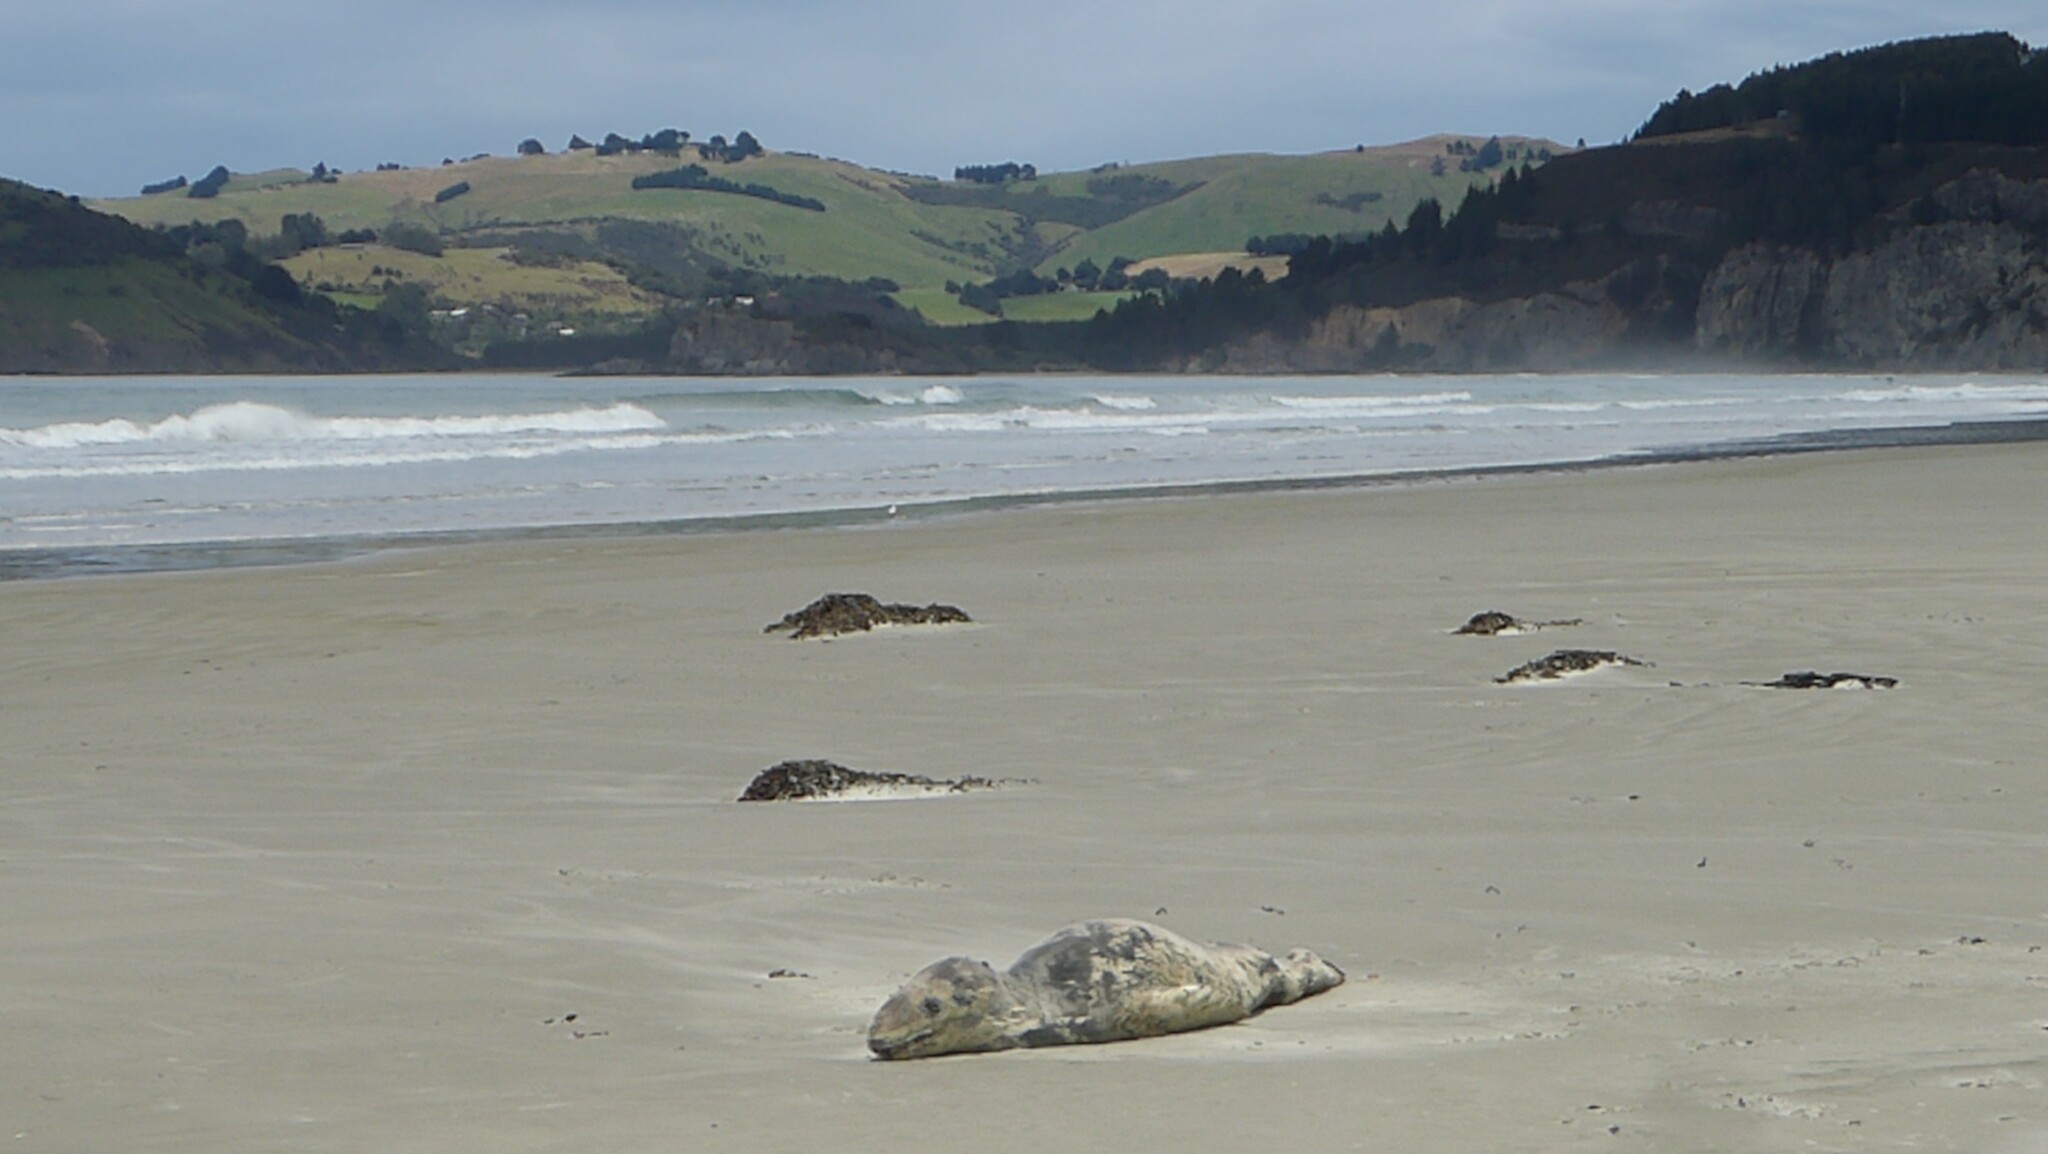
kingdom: Animalia
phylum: Chordata
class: Mammalia
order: Carnivora
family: Phocidae
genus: Hydrurga
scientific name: Hydrurga leptonyx
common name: Leopard seal
